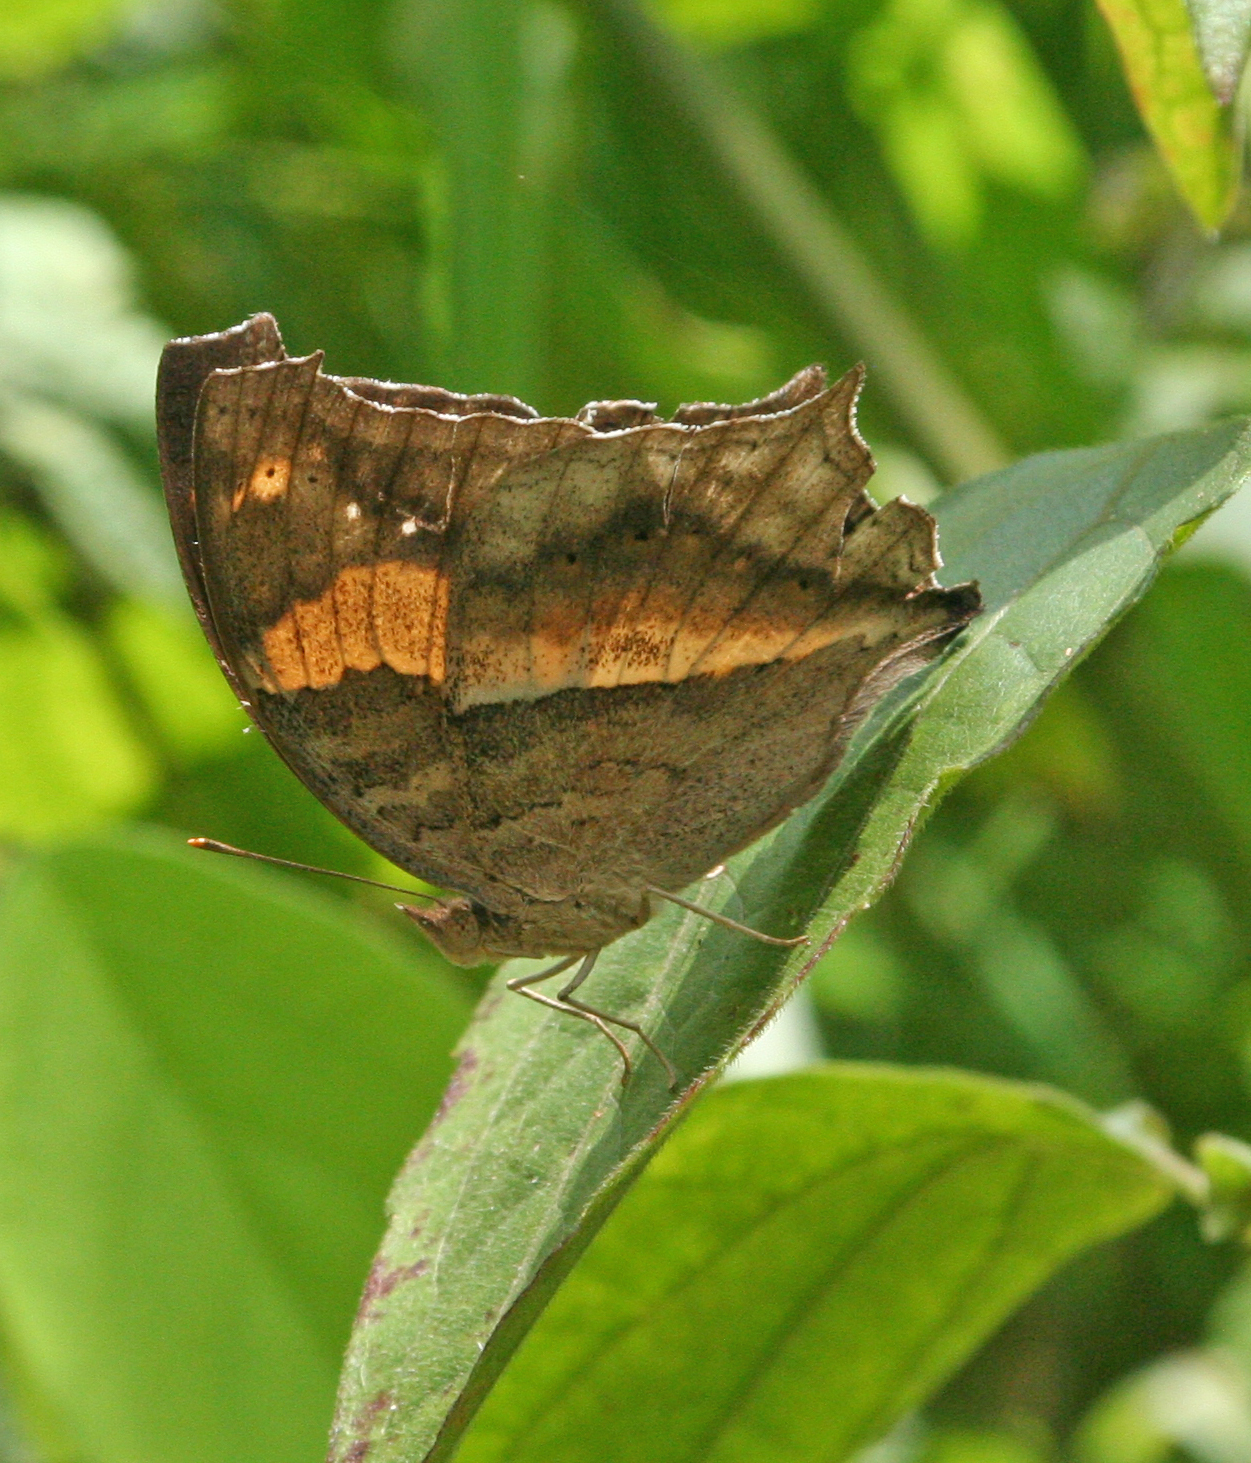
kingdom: Animalia
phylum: Arthropoda
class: Insecta
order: Lepidoptera
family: Nymphalidae
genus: Yoma
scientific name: Yoma sabina
